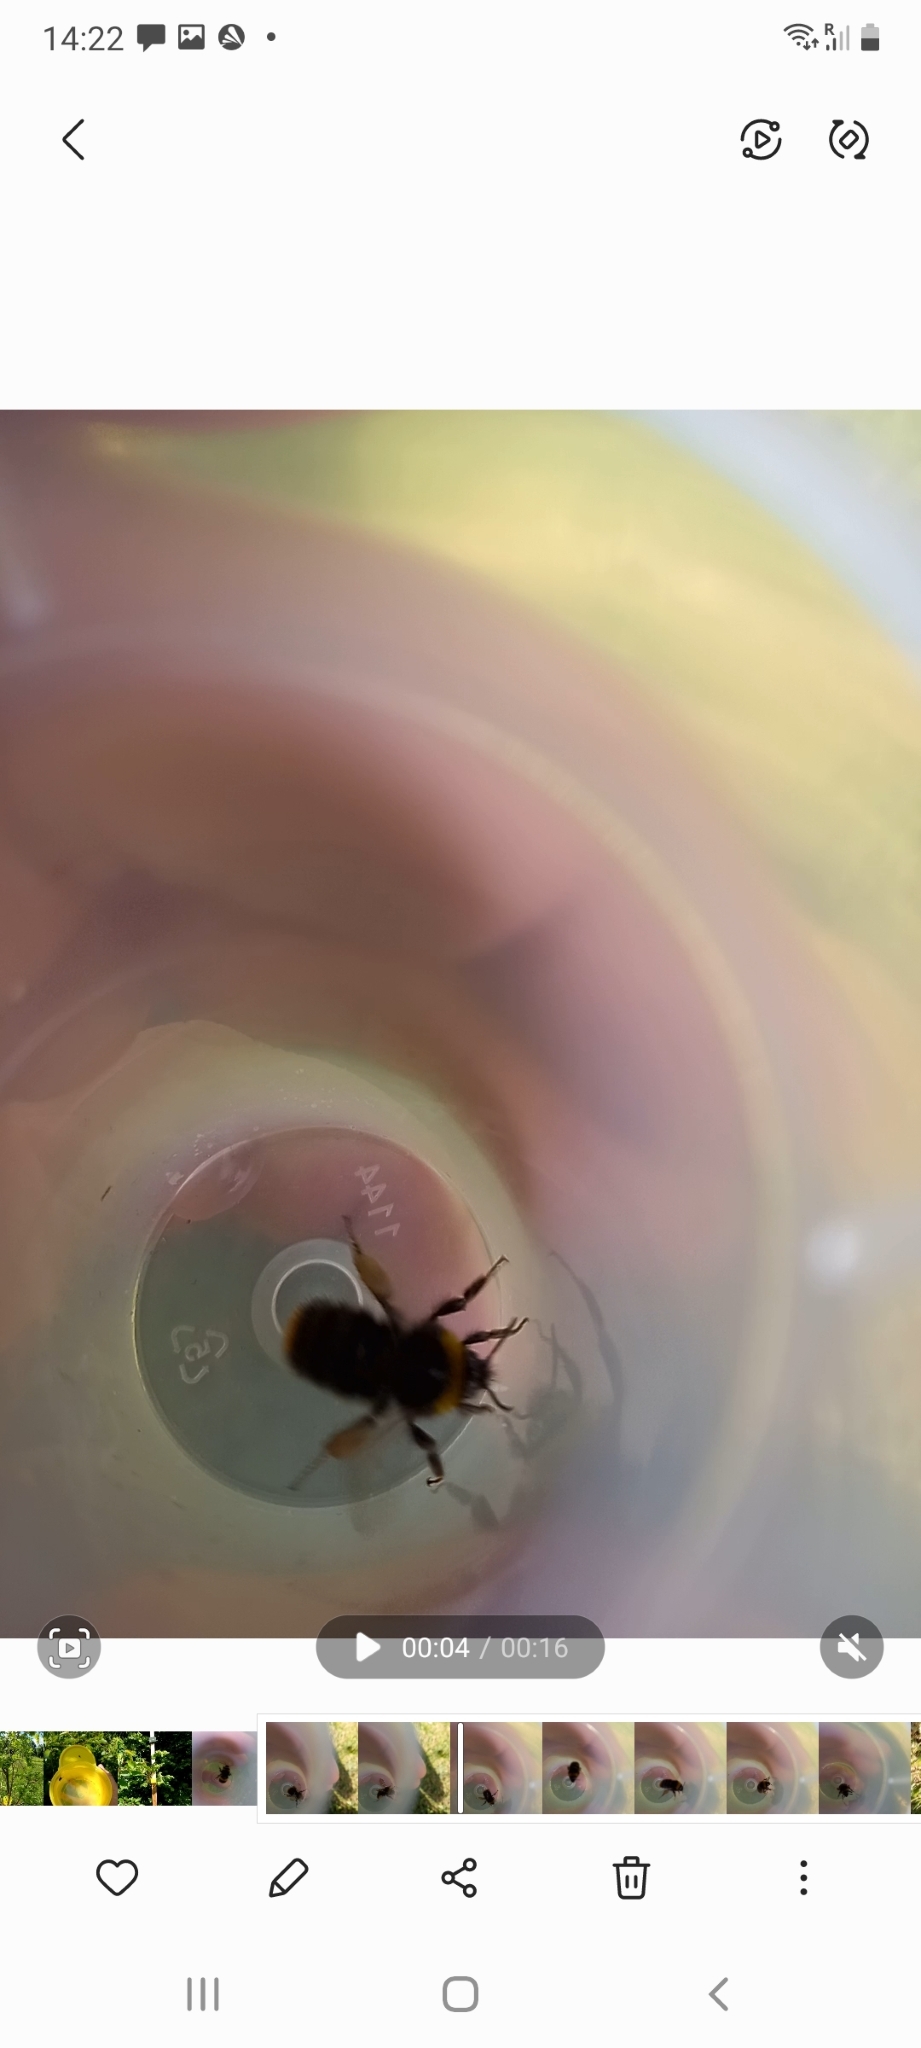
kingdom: Animalia
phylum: Arthropoda
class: Insecta
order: Hymenoptera
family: Apidae
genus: Bombus
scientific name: Bombus pratorum
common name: Early humble-bee
